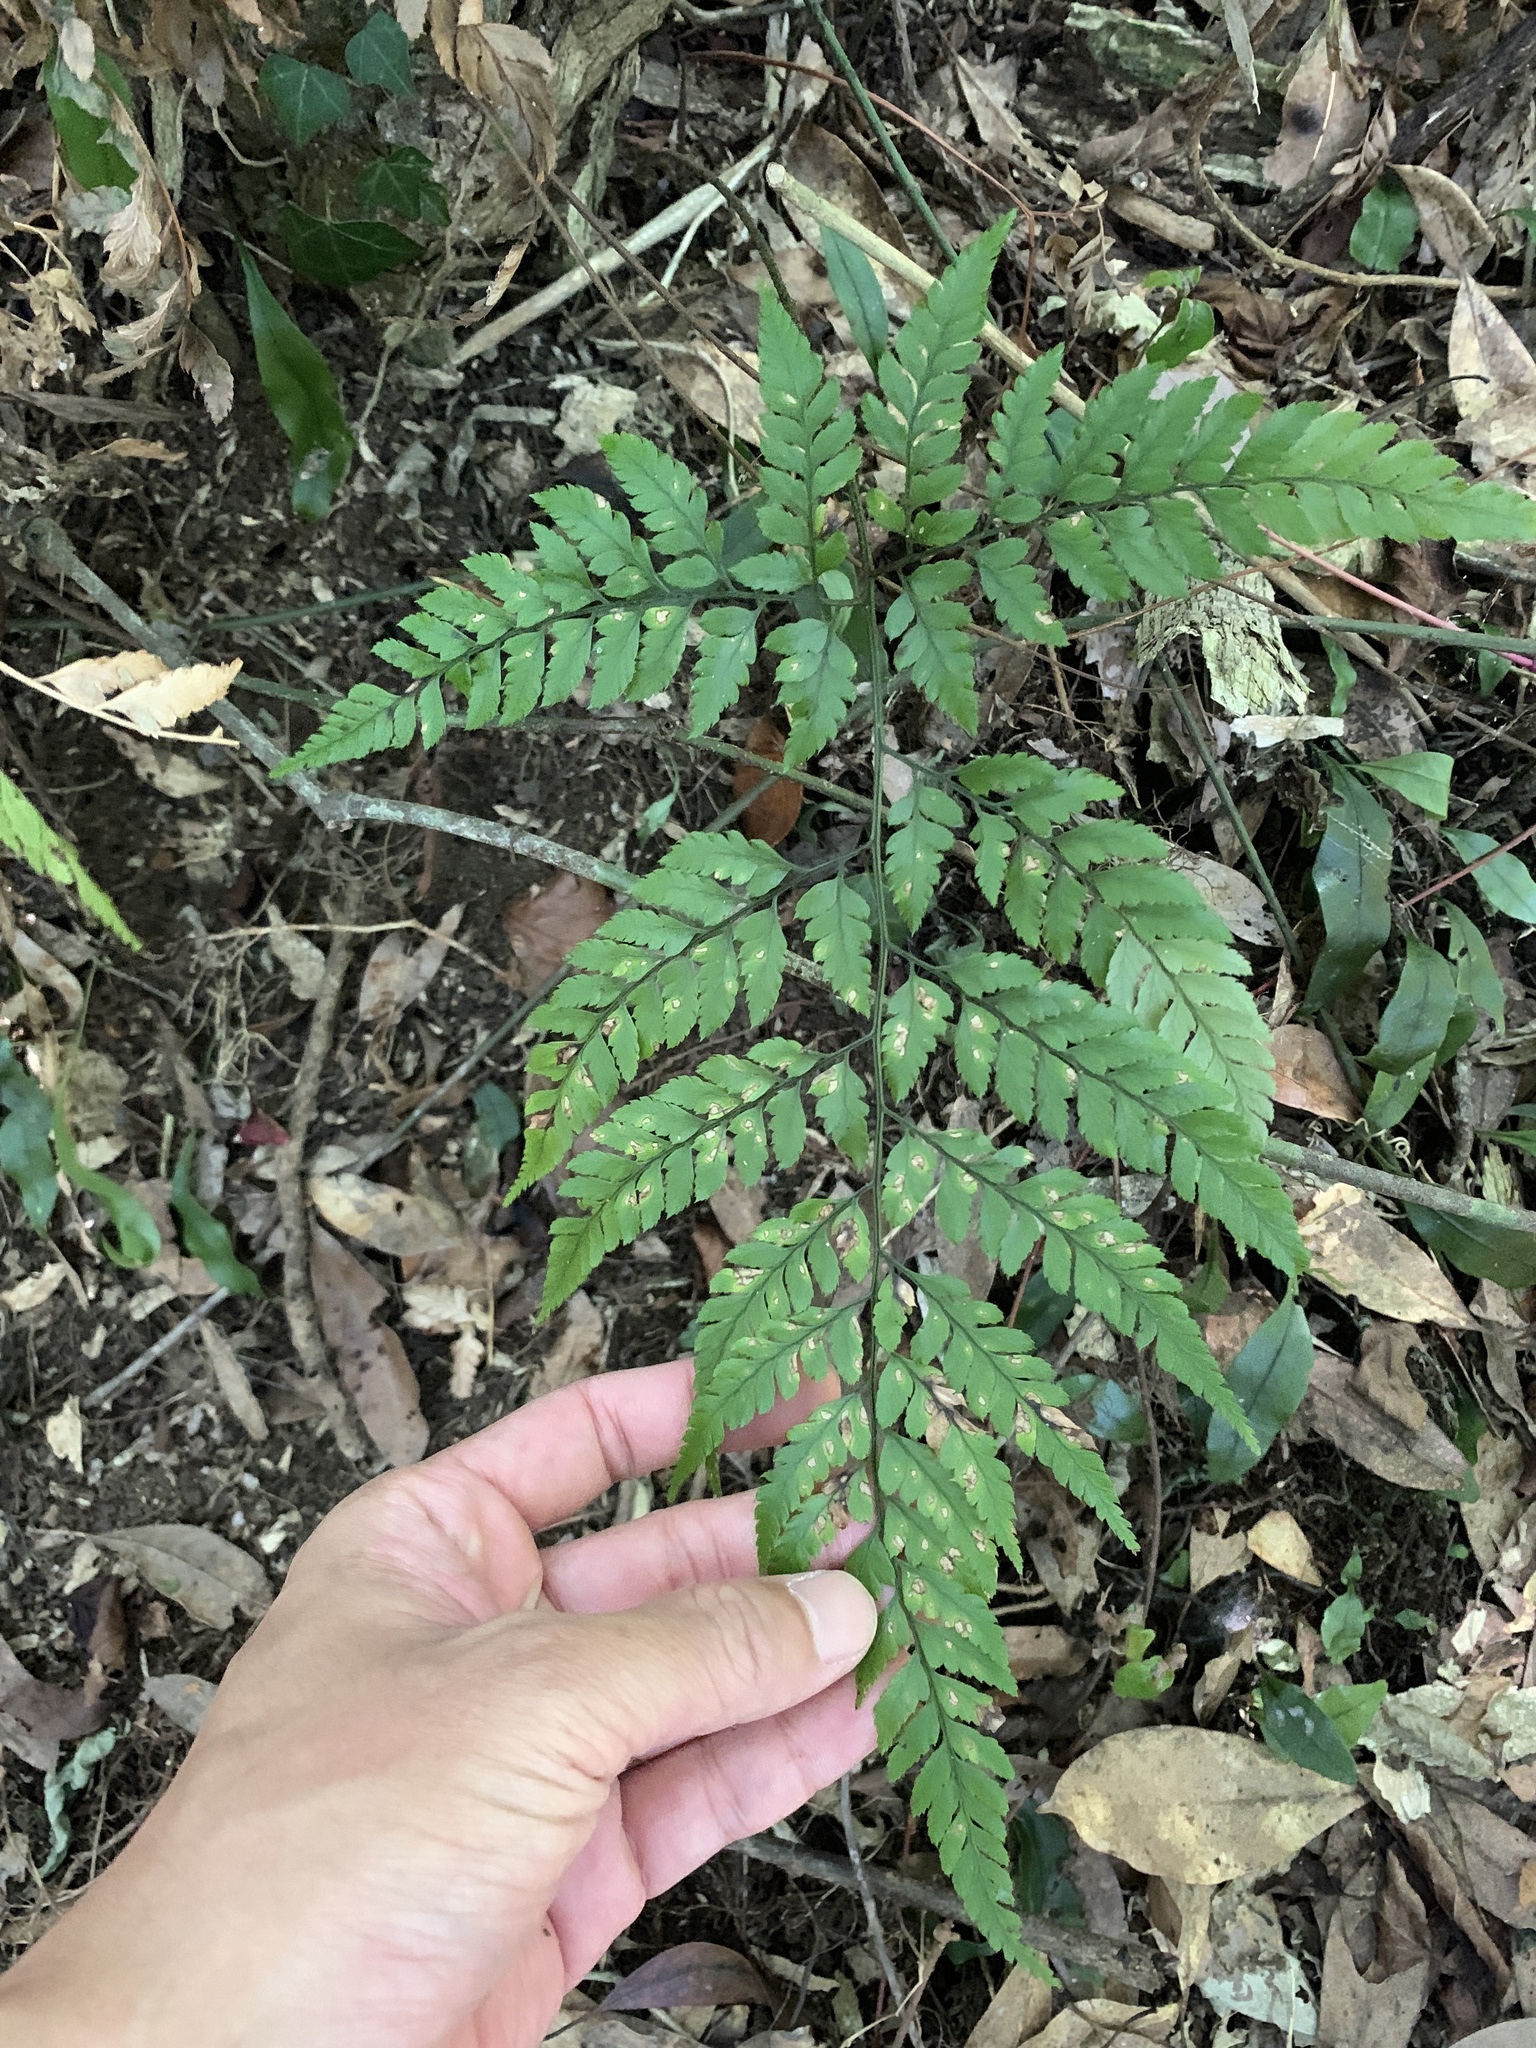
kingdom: Plantae
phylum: Tracheophyta
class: Polypodiopsida
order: Polypodiales
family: Dryopteridaceae
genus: Arachniodes
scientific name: Arachniodes pseudoaristata
